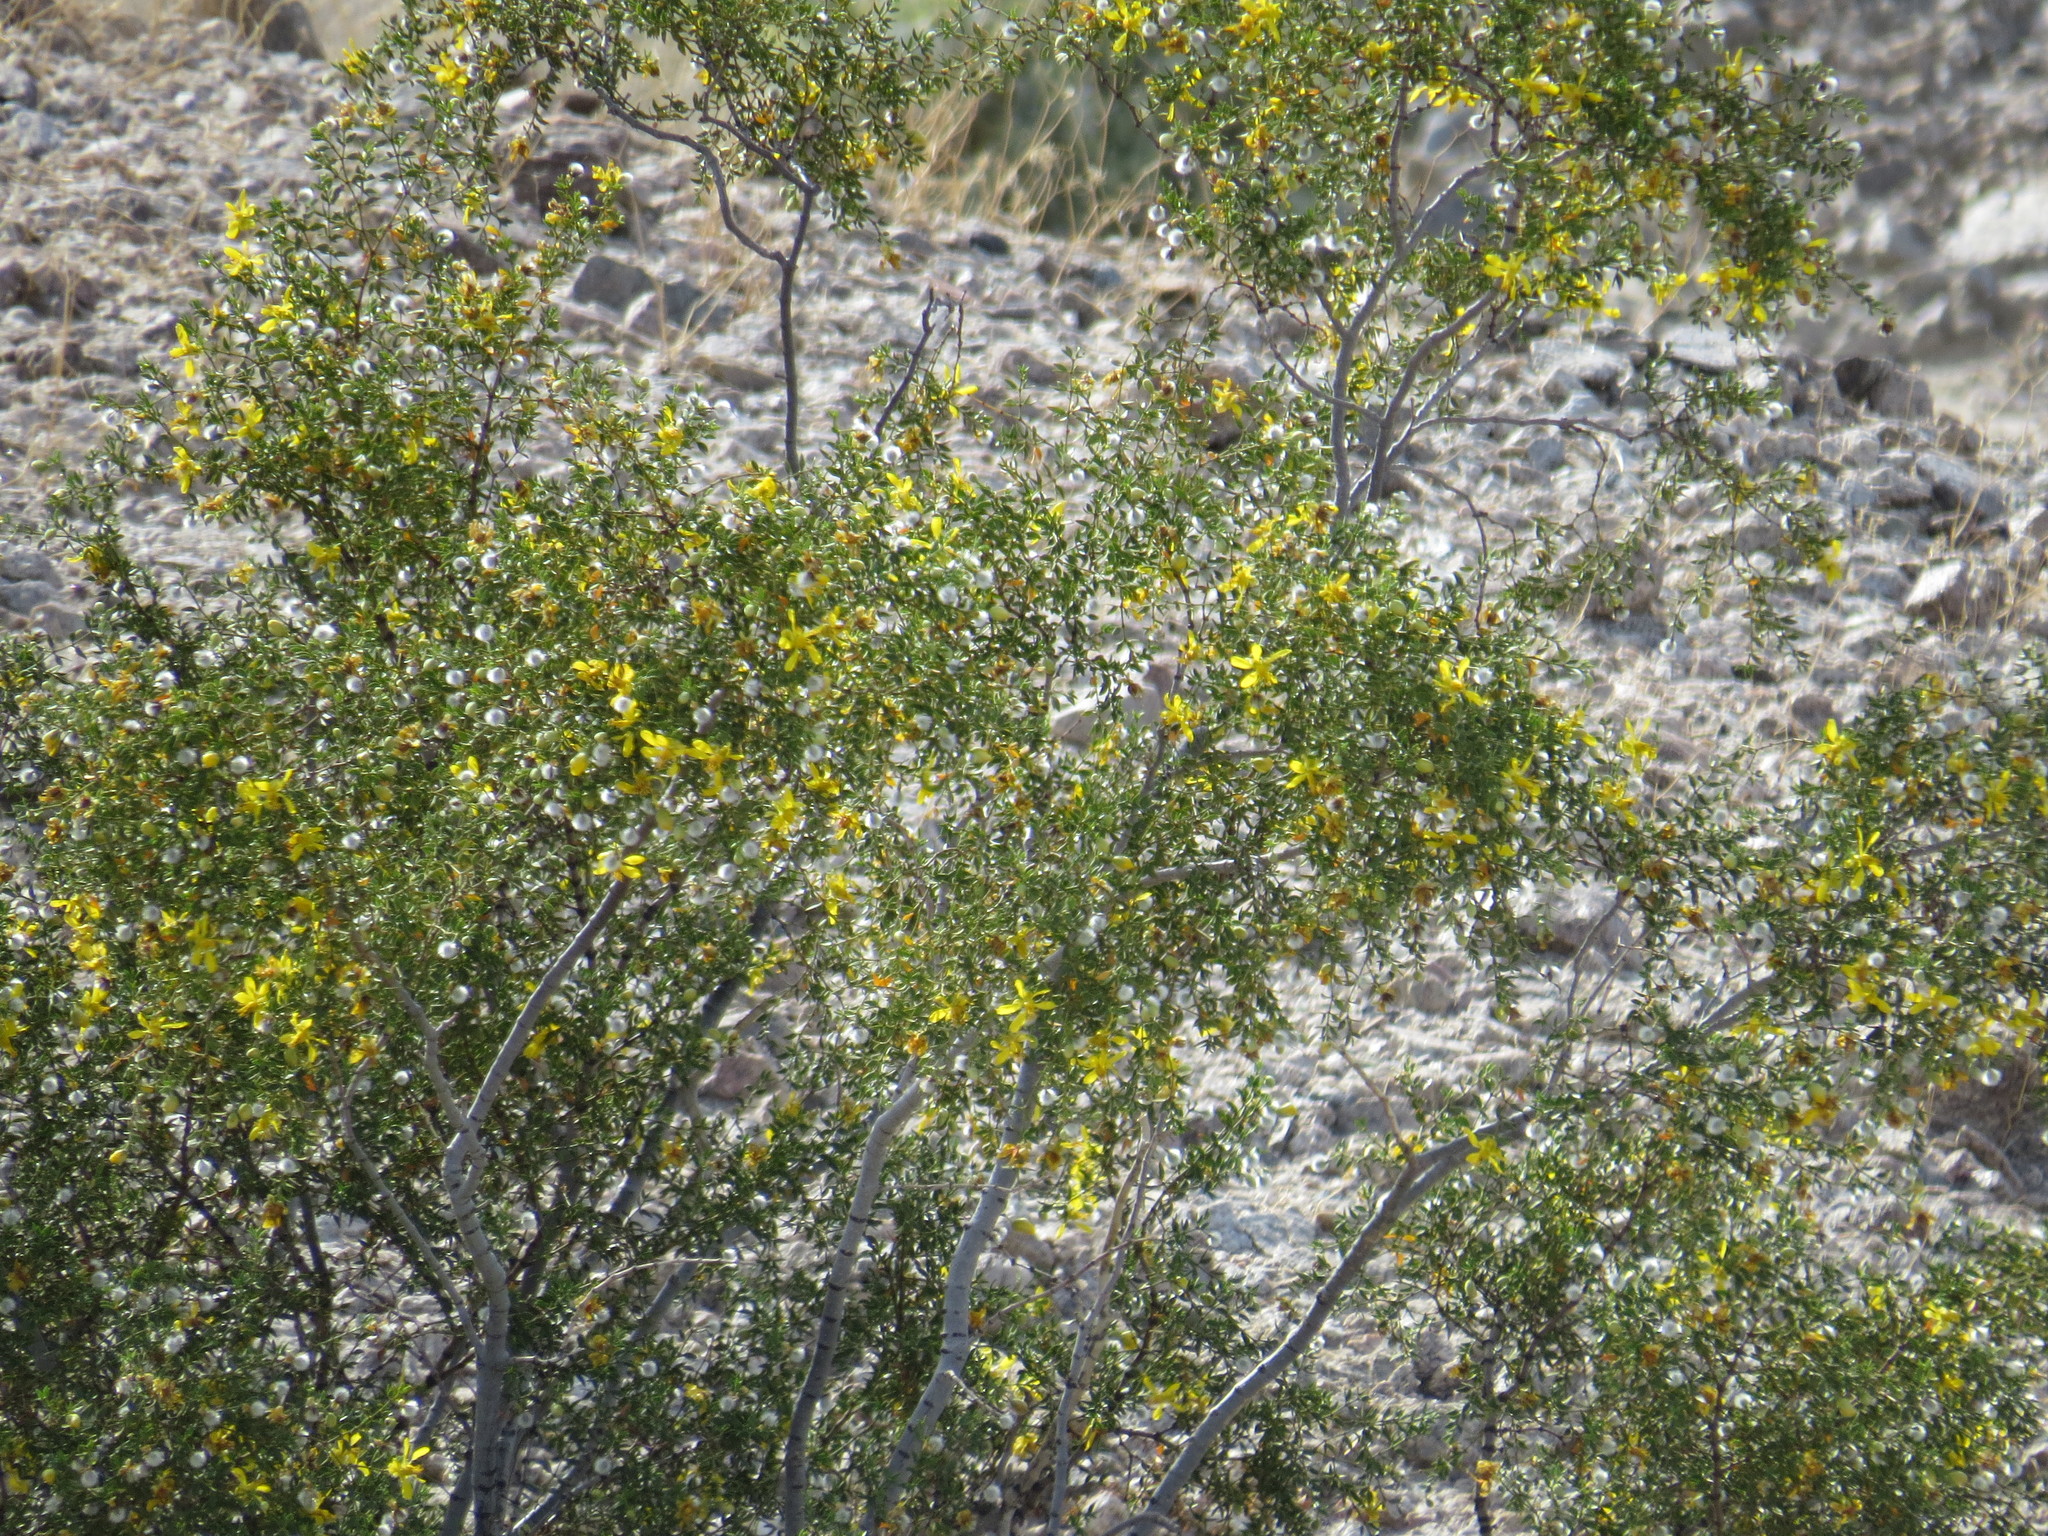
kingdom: Plantae
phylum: Tracheophyta
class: Magnoliopsida
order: Zygophyllales
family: Zygophyllaceae
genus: Larrea
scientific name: Larrea tridentata
